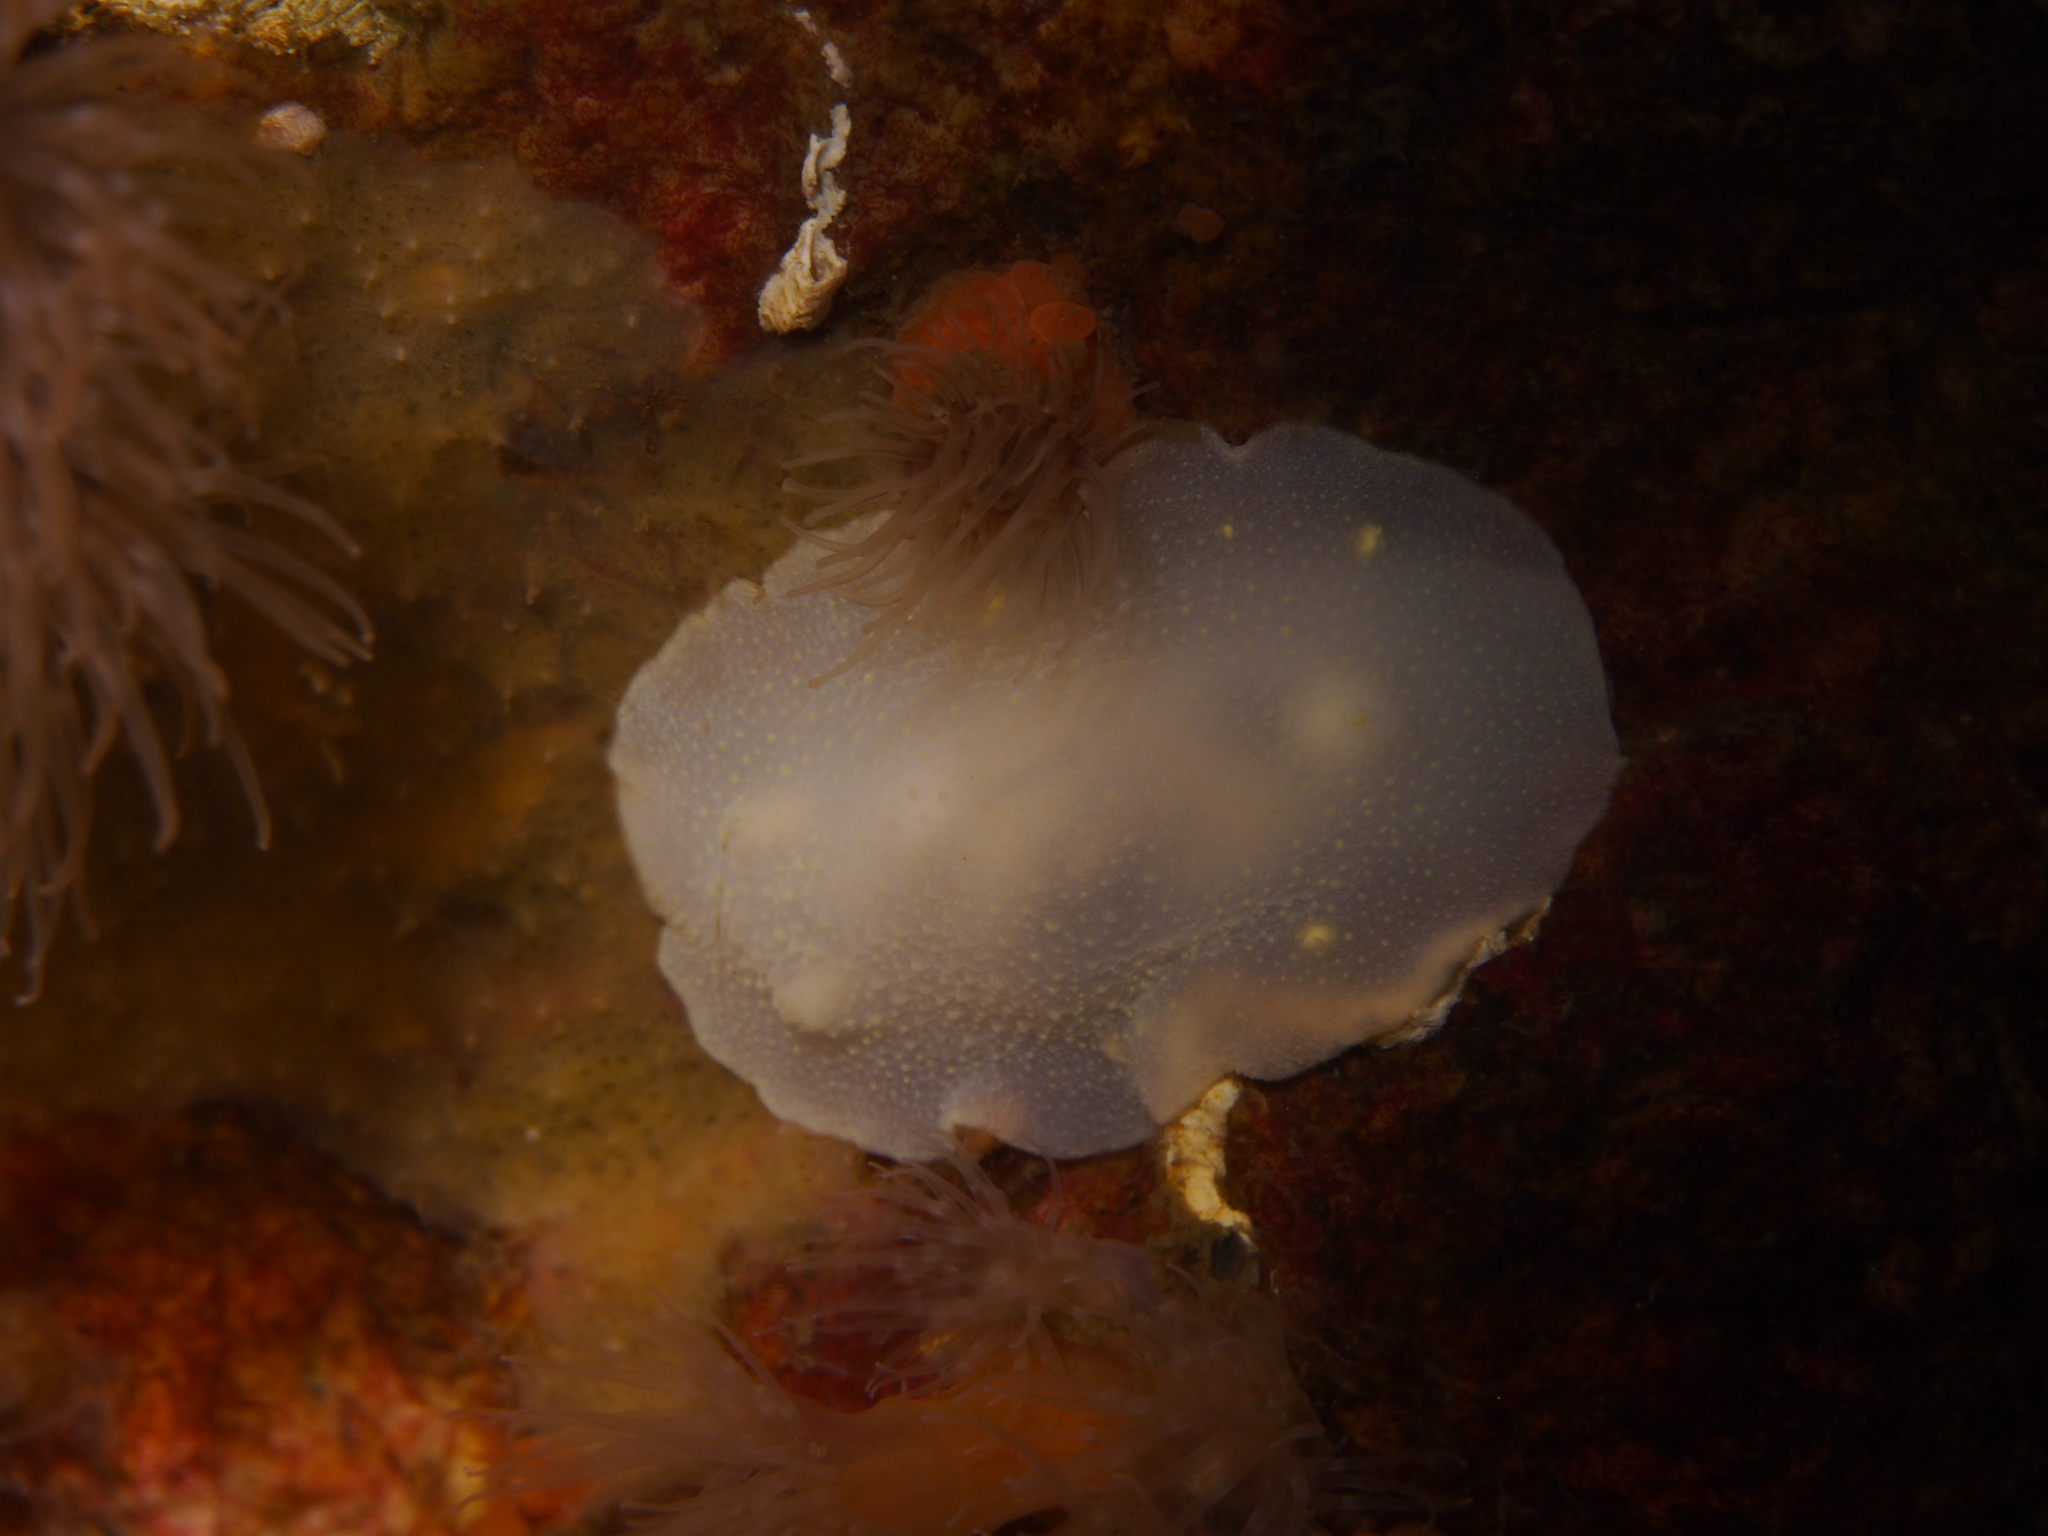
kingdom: Animalia
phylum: Mollusca
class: Gastropoda
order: Nudibranchia
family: Cadlinidae
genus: Cadlina
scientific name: Cadlina laevis
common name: White atlantic cadlina
